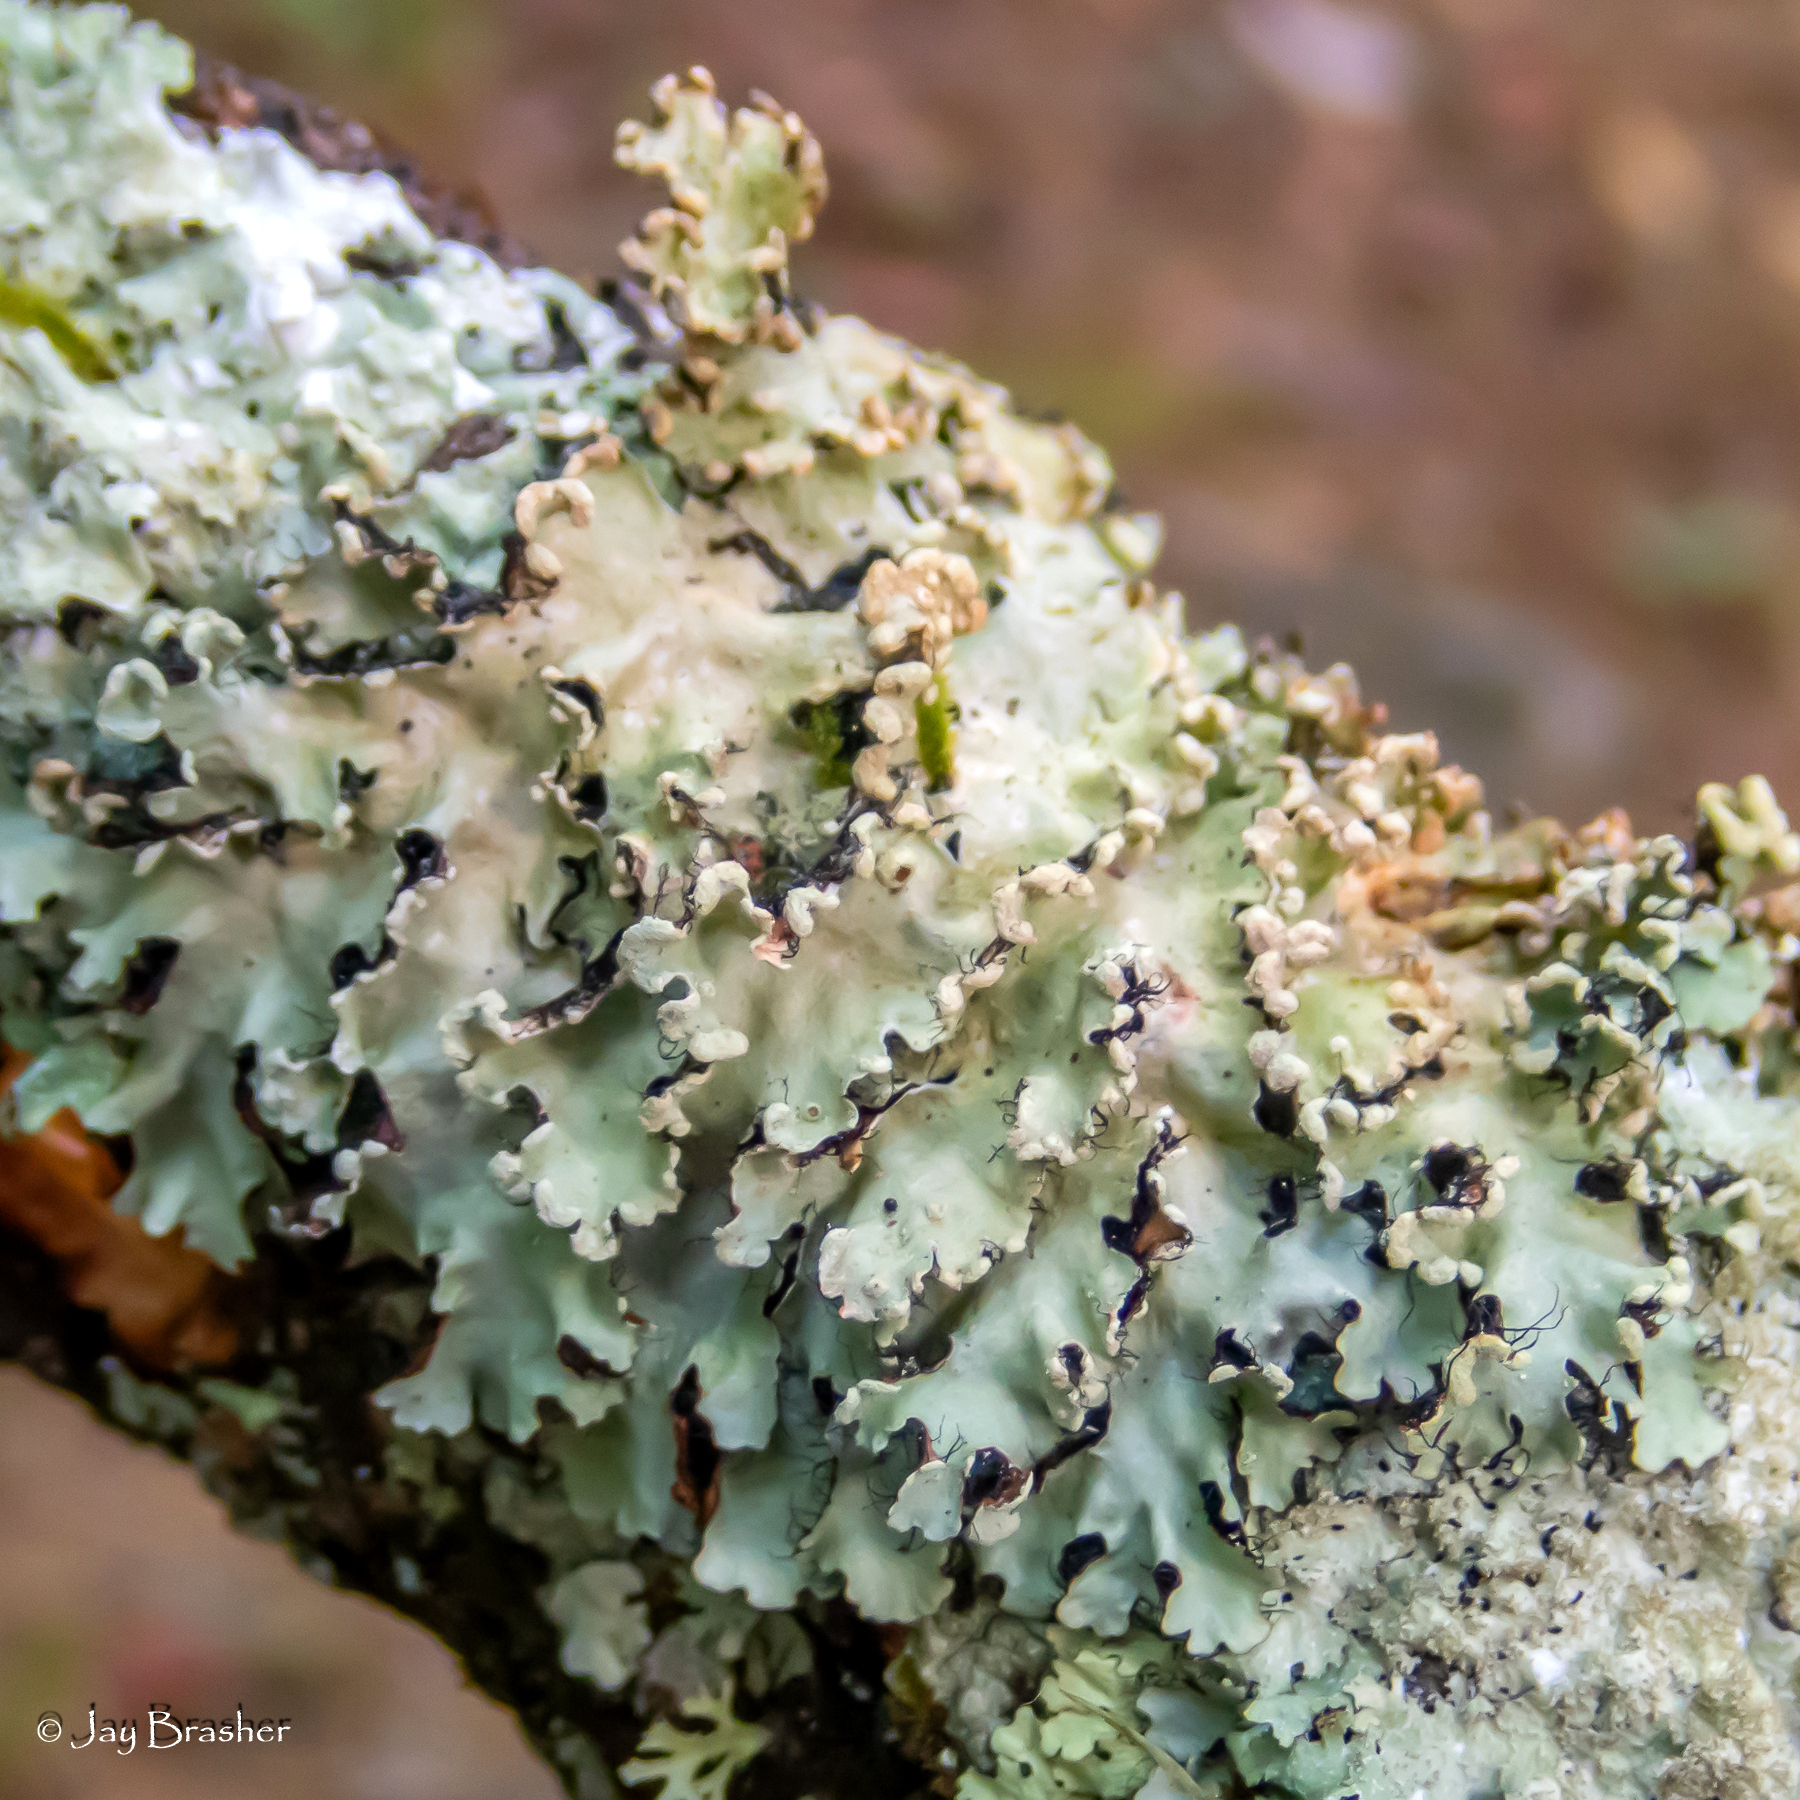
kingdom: Fungi
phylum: Ascomycota
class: Lecanoromycetes
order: Lecanorales
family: Parmeliaceae
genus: Parmotrema
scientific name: Parmotrema reticulatum
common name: Black sheet lichen
